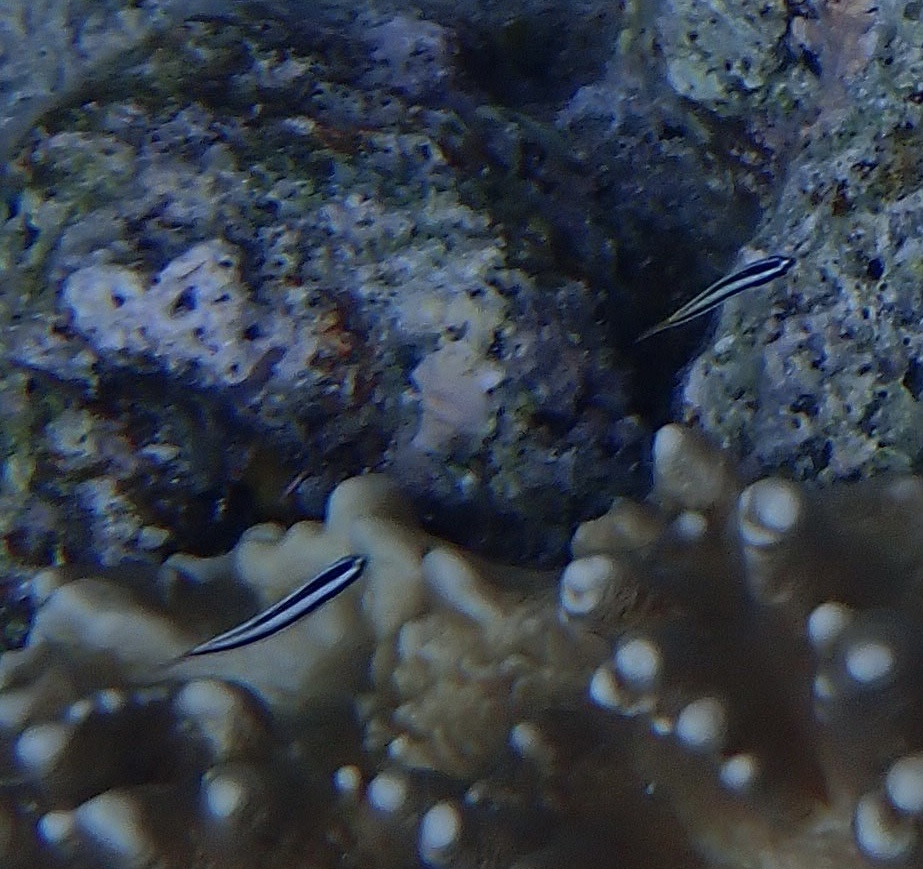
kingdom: Animalia
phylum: Chordata
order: Perciformes
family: Labridae
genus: Thalassoma
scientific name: Thalassoma amblycephalum
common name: Bluehead wrasse
